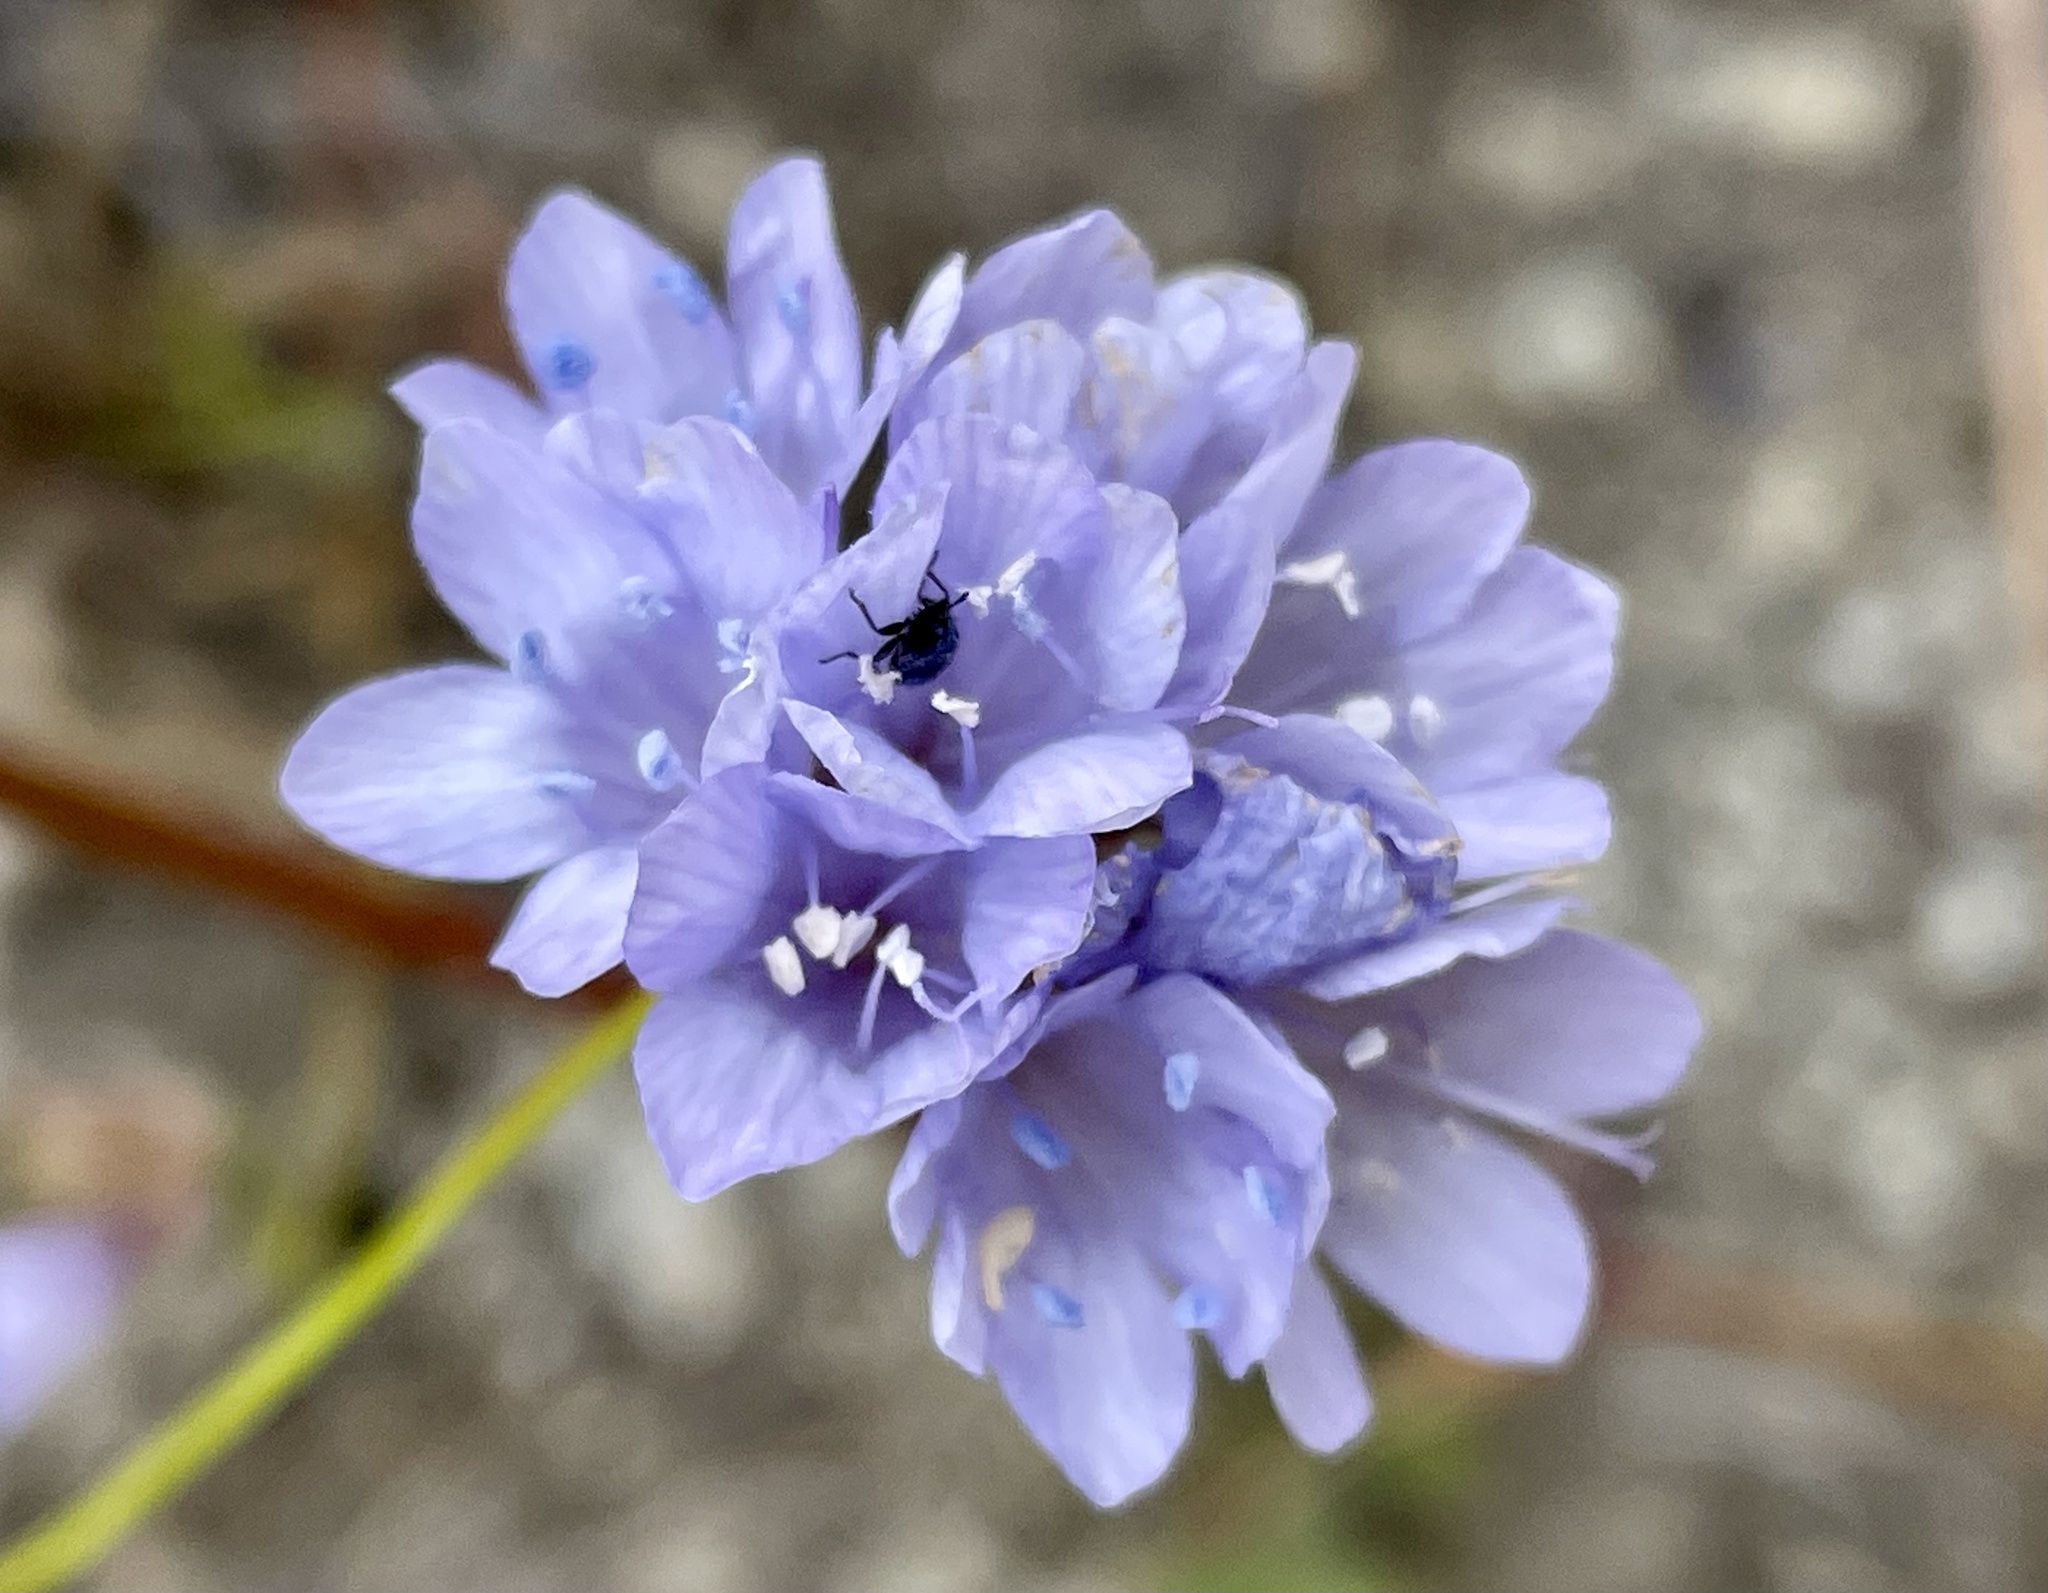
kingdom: Plantae
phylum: Tracheophyta
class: Magnoliopsida
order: Ericales
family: Polemoniaceae
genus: Gilia
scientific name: Gilia achilleifolia
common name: California gily-flower
